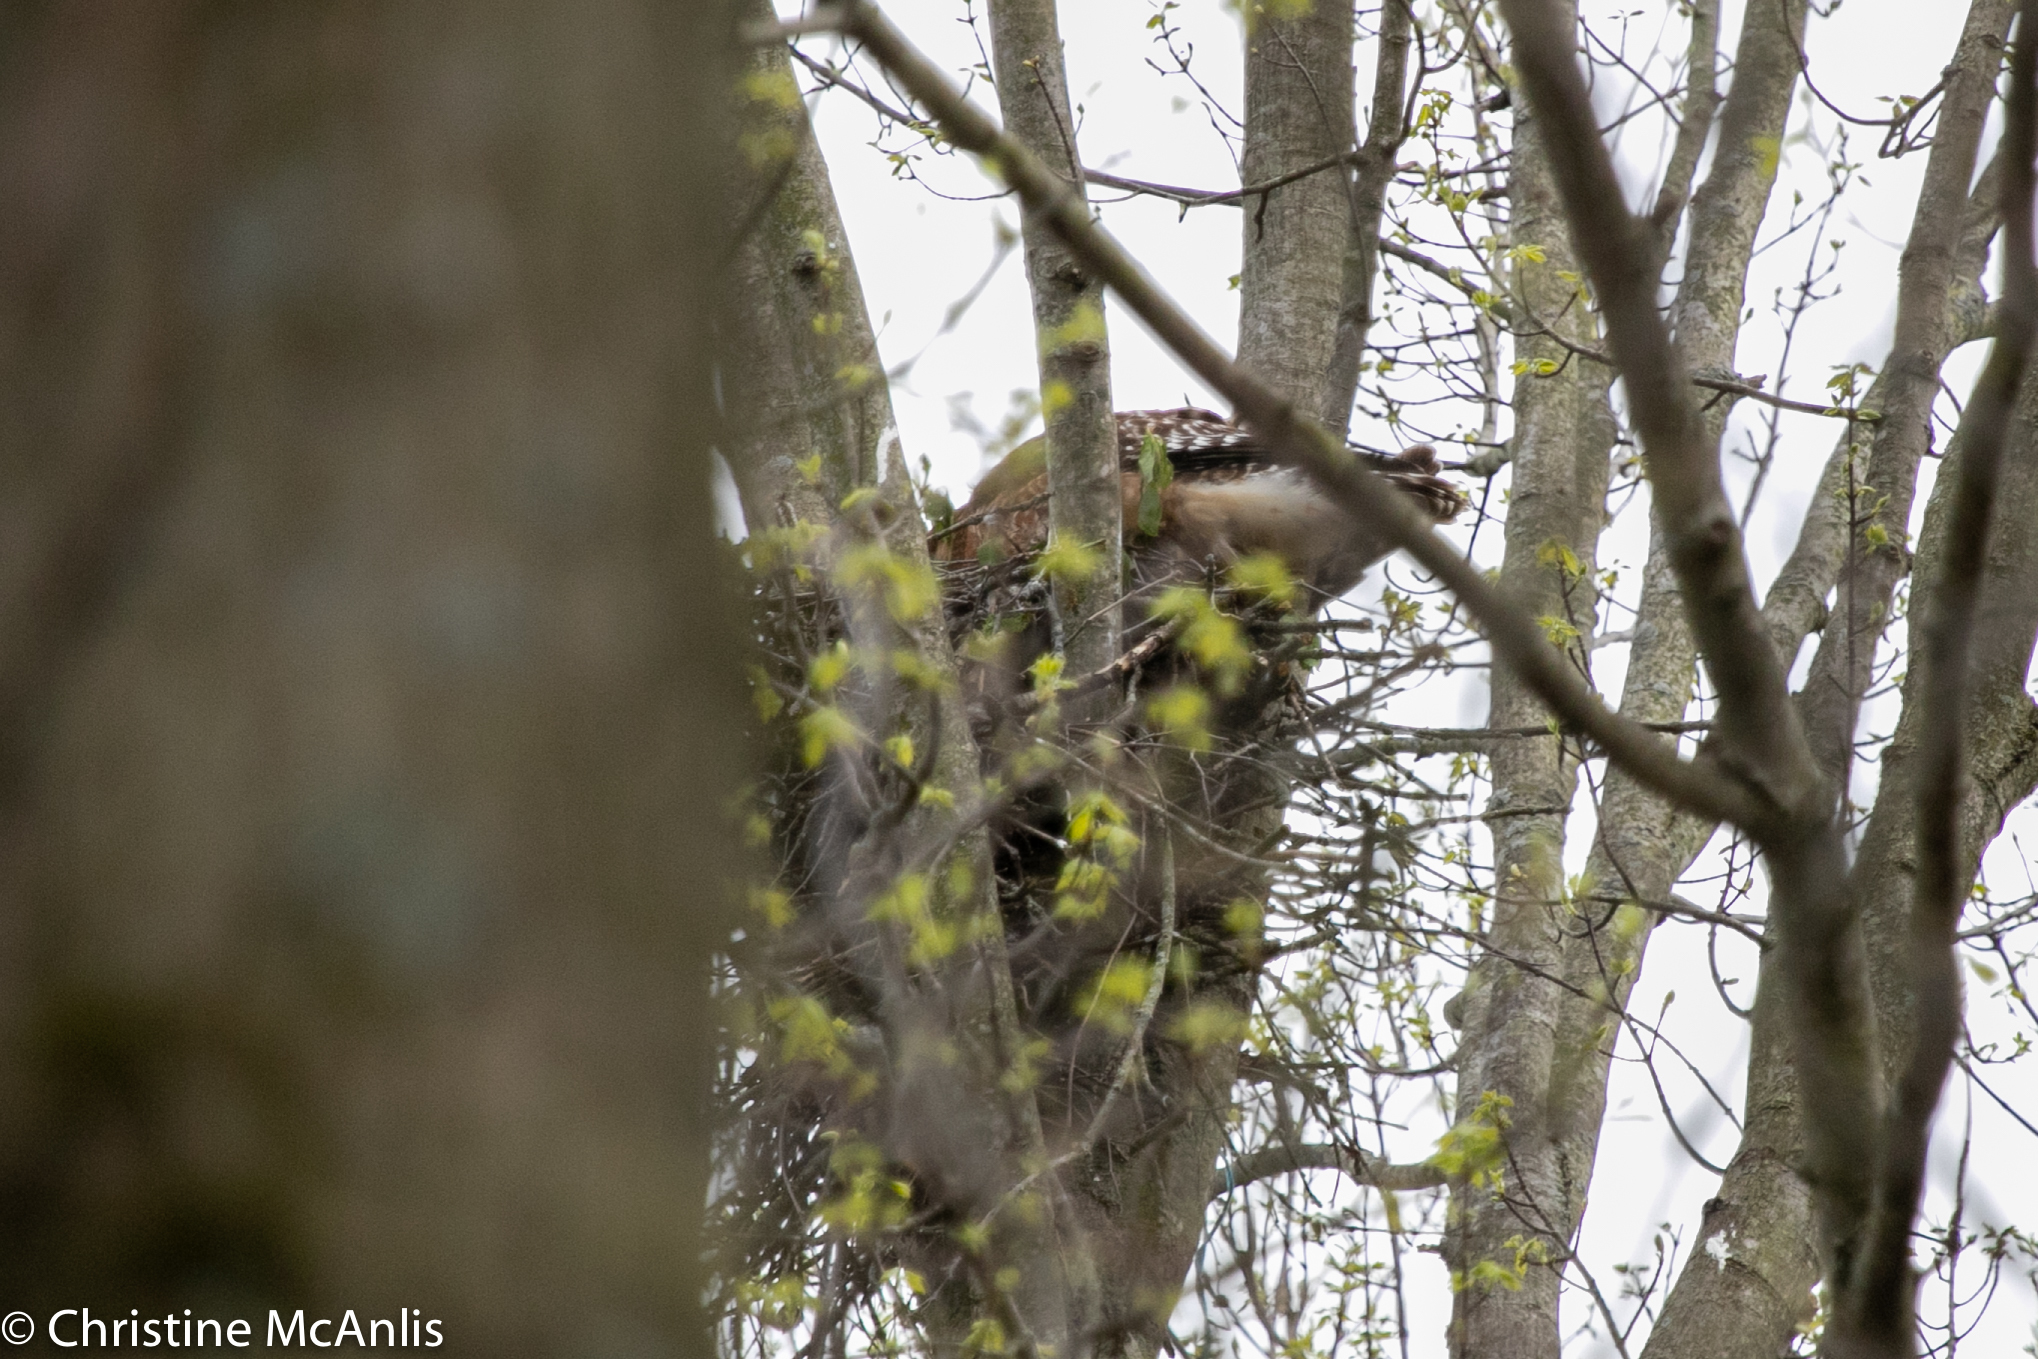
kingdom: Animalia
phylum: Chordata
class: Aves
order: Accipitriformes
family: Accipitridae
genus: Buteo
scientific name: Buteo lineatus
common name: Red-shouldered hawk
